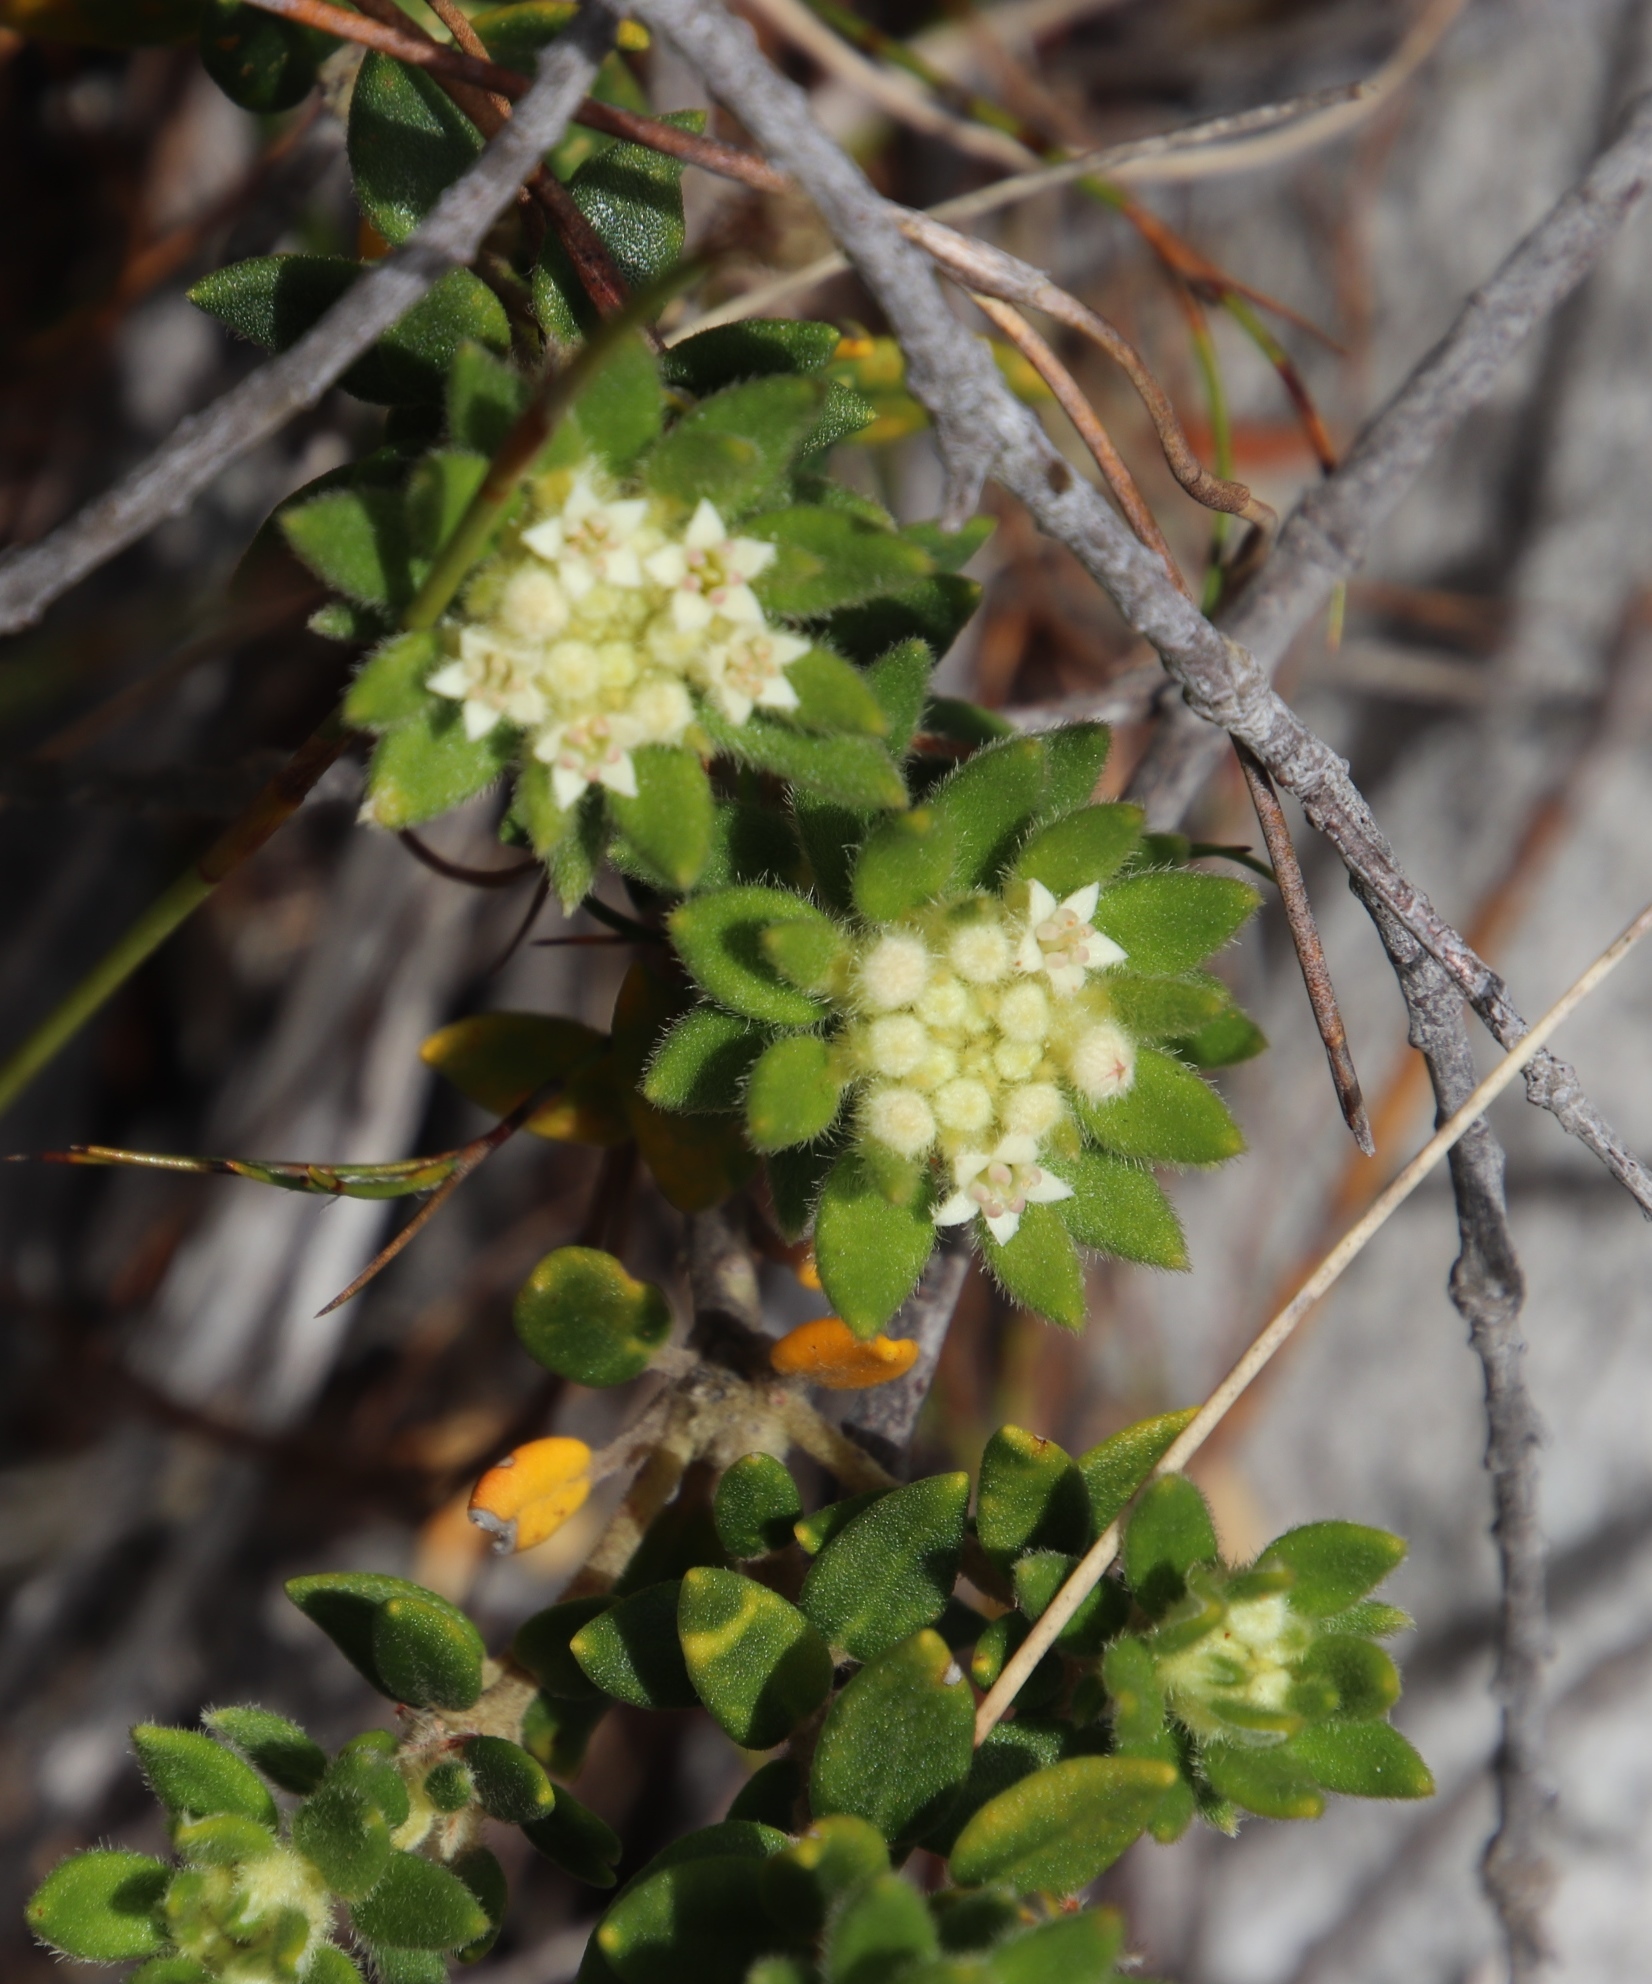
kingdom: Plantae
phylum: Tracheophyta
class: Magnoliopsida
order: Rosales
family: Rhamnaceae
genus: Phylica
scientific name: Phylica dioica
